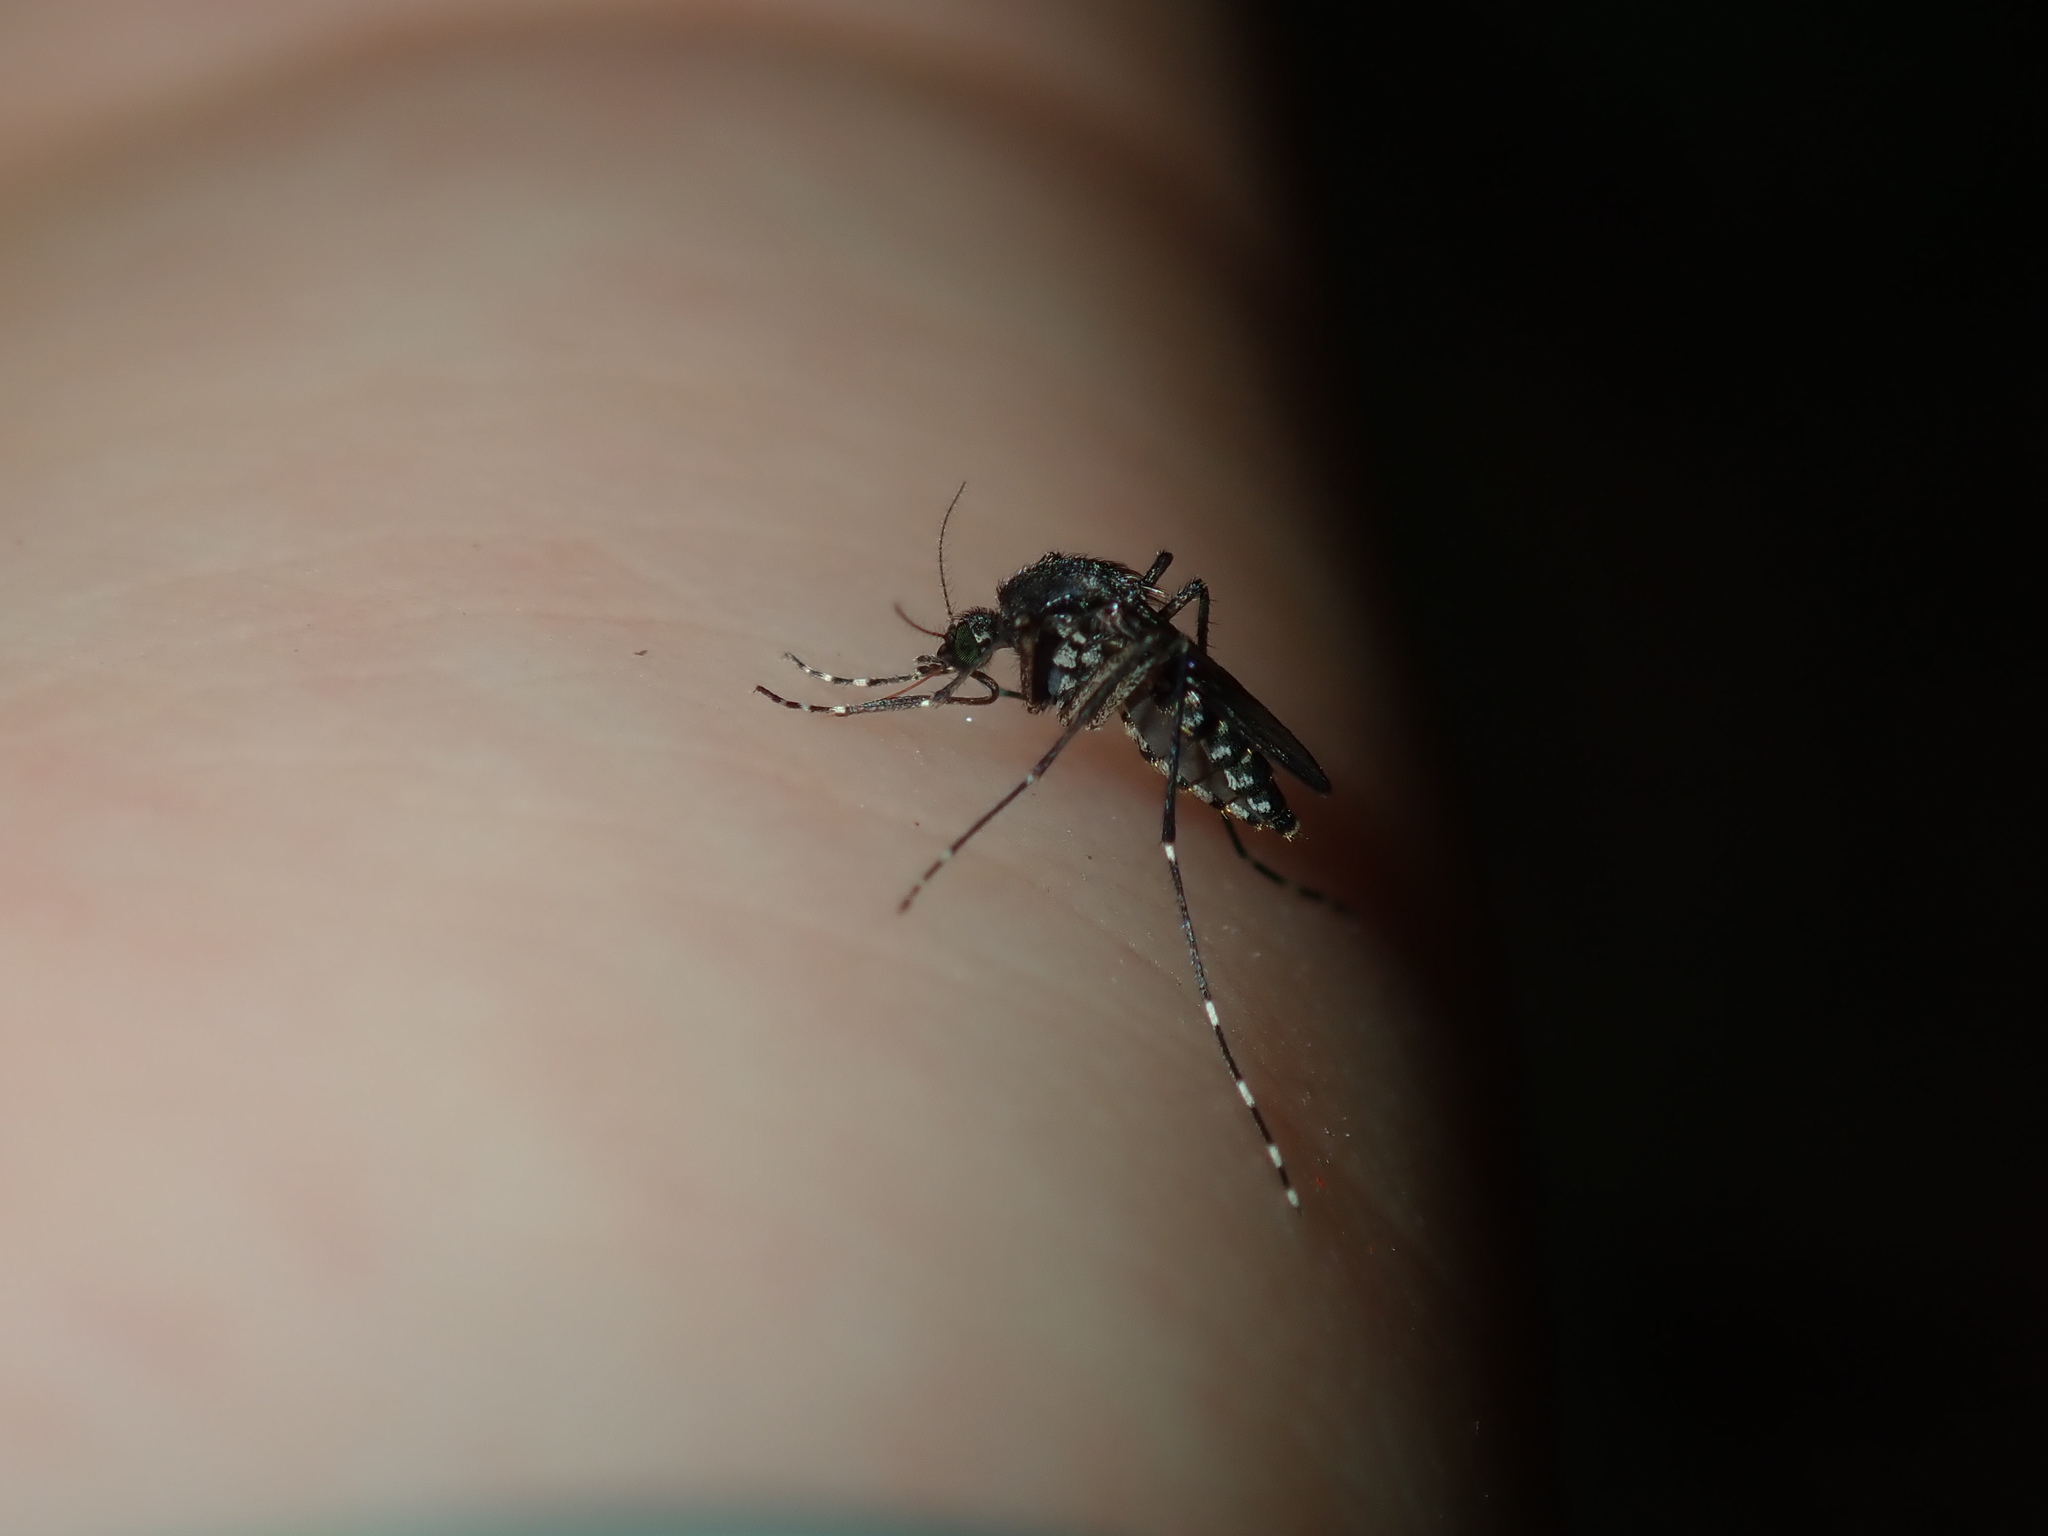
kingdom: Animalia
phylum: Arthropoda
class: Insecta
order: Diptera
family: Culicidae
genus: Aedes
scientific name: Aedes vigilax
